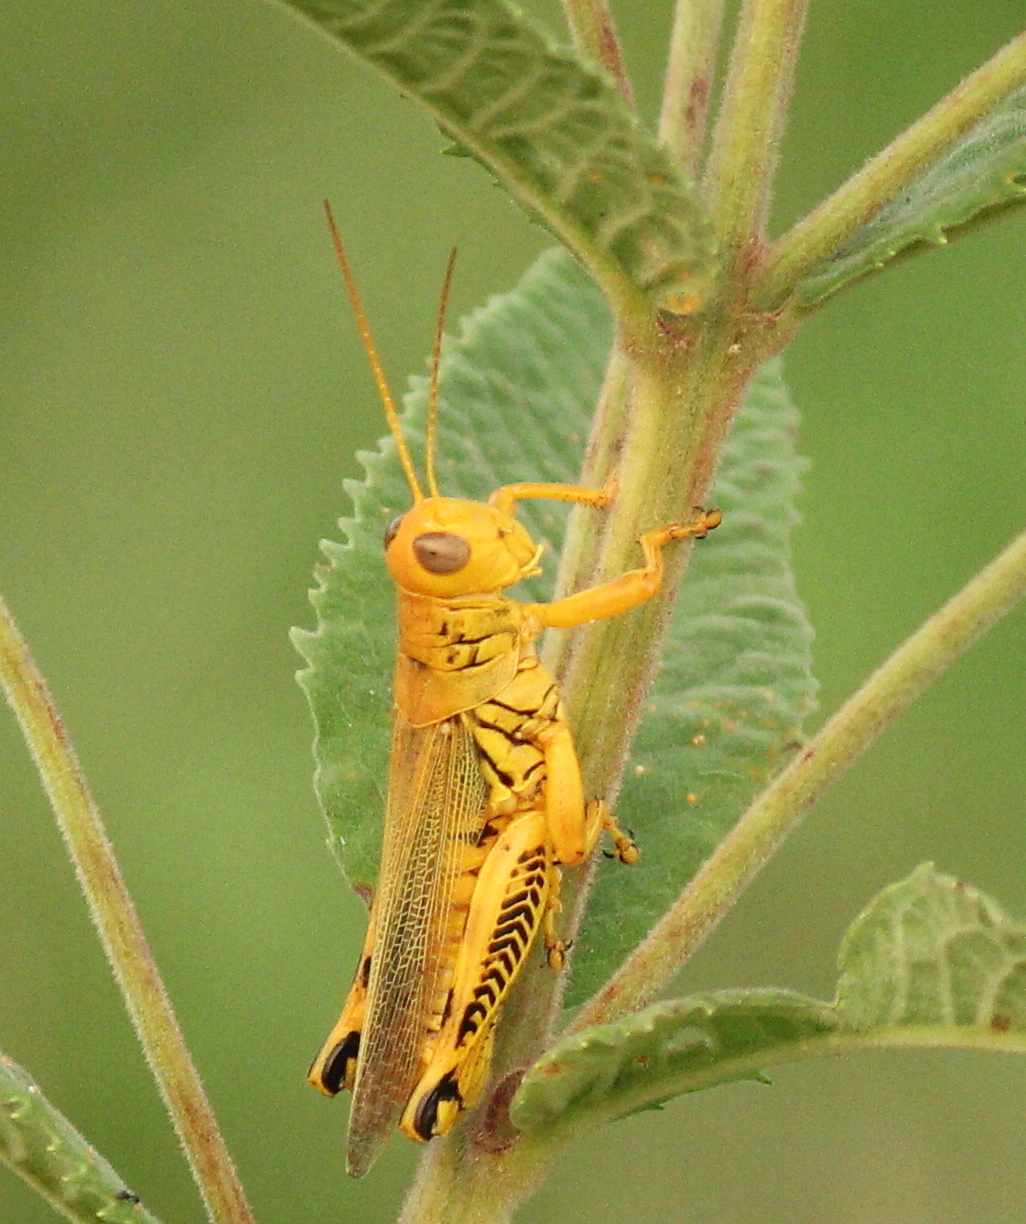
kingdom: Animalia
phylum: Arthropoda
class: Insecta
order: Orthoptera
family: Acrididae
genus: Melanoplus
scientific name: Melanoplus differentialis
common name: Differential grasshopper
